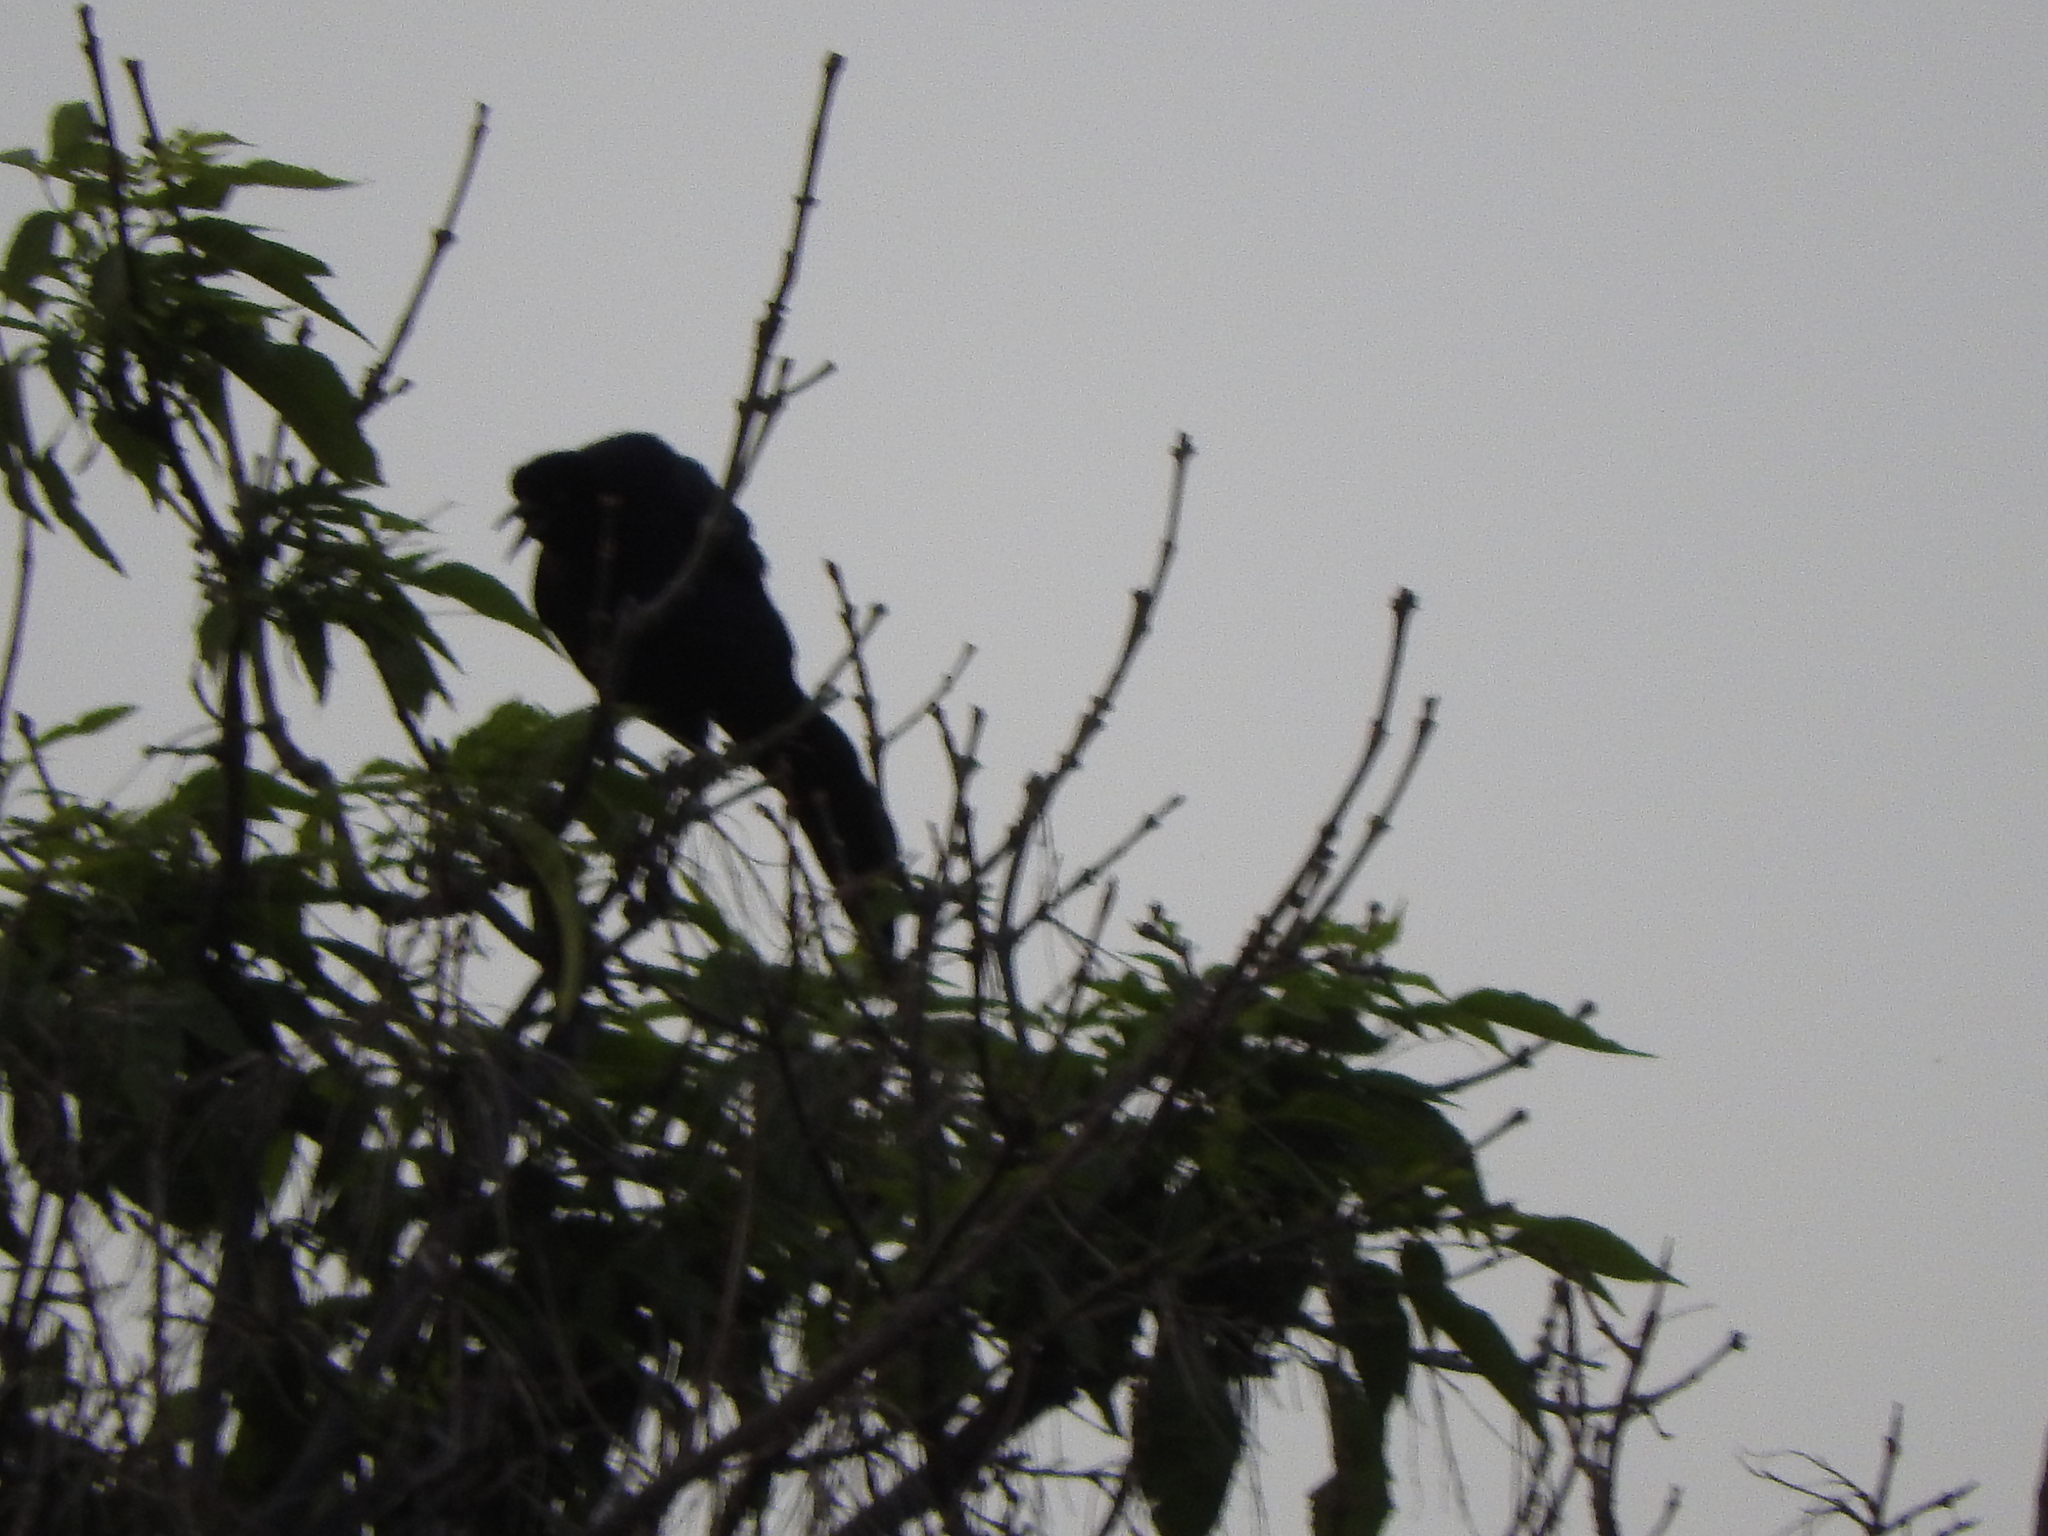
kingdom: Animalia
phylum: Chordata
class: Aves
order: Passeriformes
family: Icteridae
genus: Quiscalus
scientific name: Quiscalus mexicanus
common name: Great-tailed grackle
